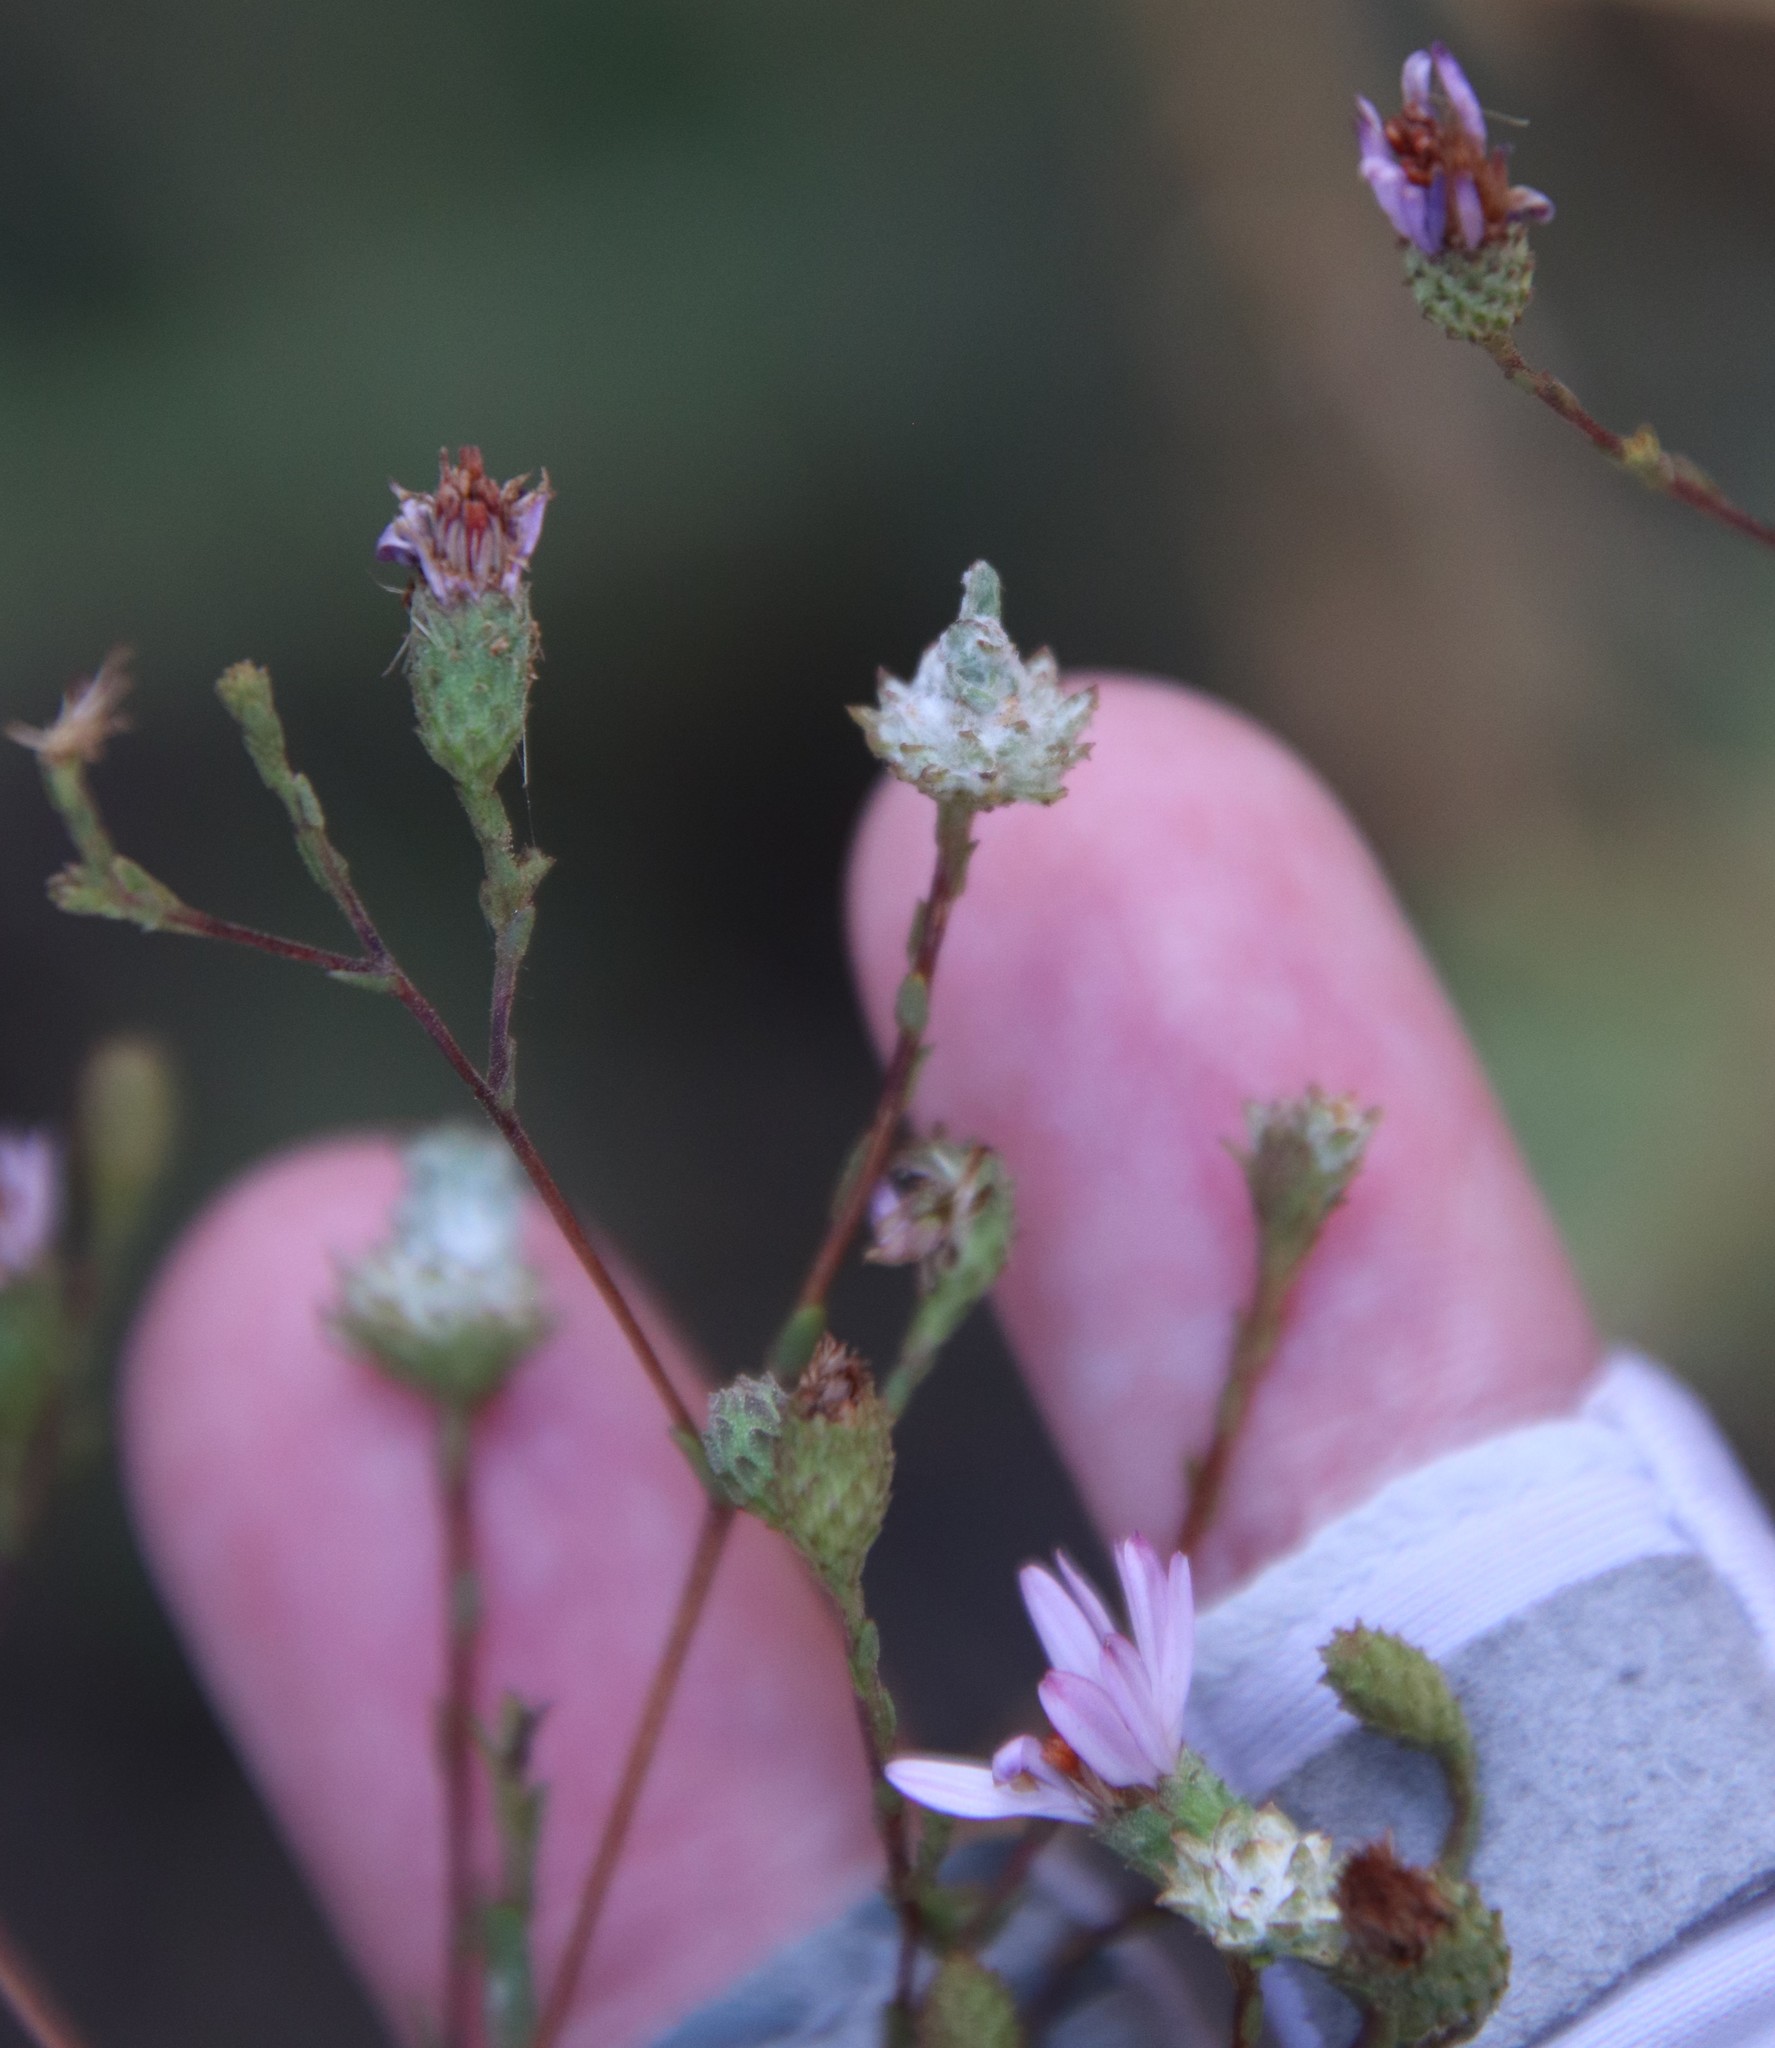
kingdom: Plantae
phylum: Tracheophyta
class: Magnoliopsida
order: Asterales
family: Asteraceae
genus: Corethrogyne
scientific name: Corethrogyne filaginifolia
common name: Sand-aster
